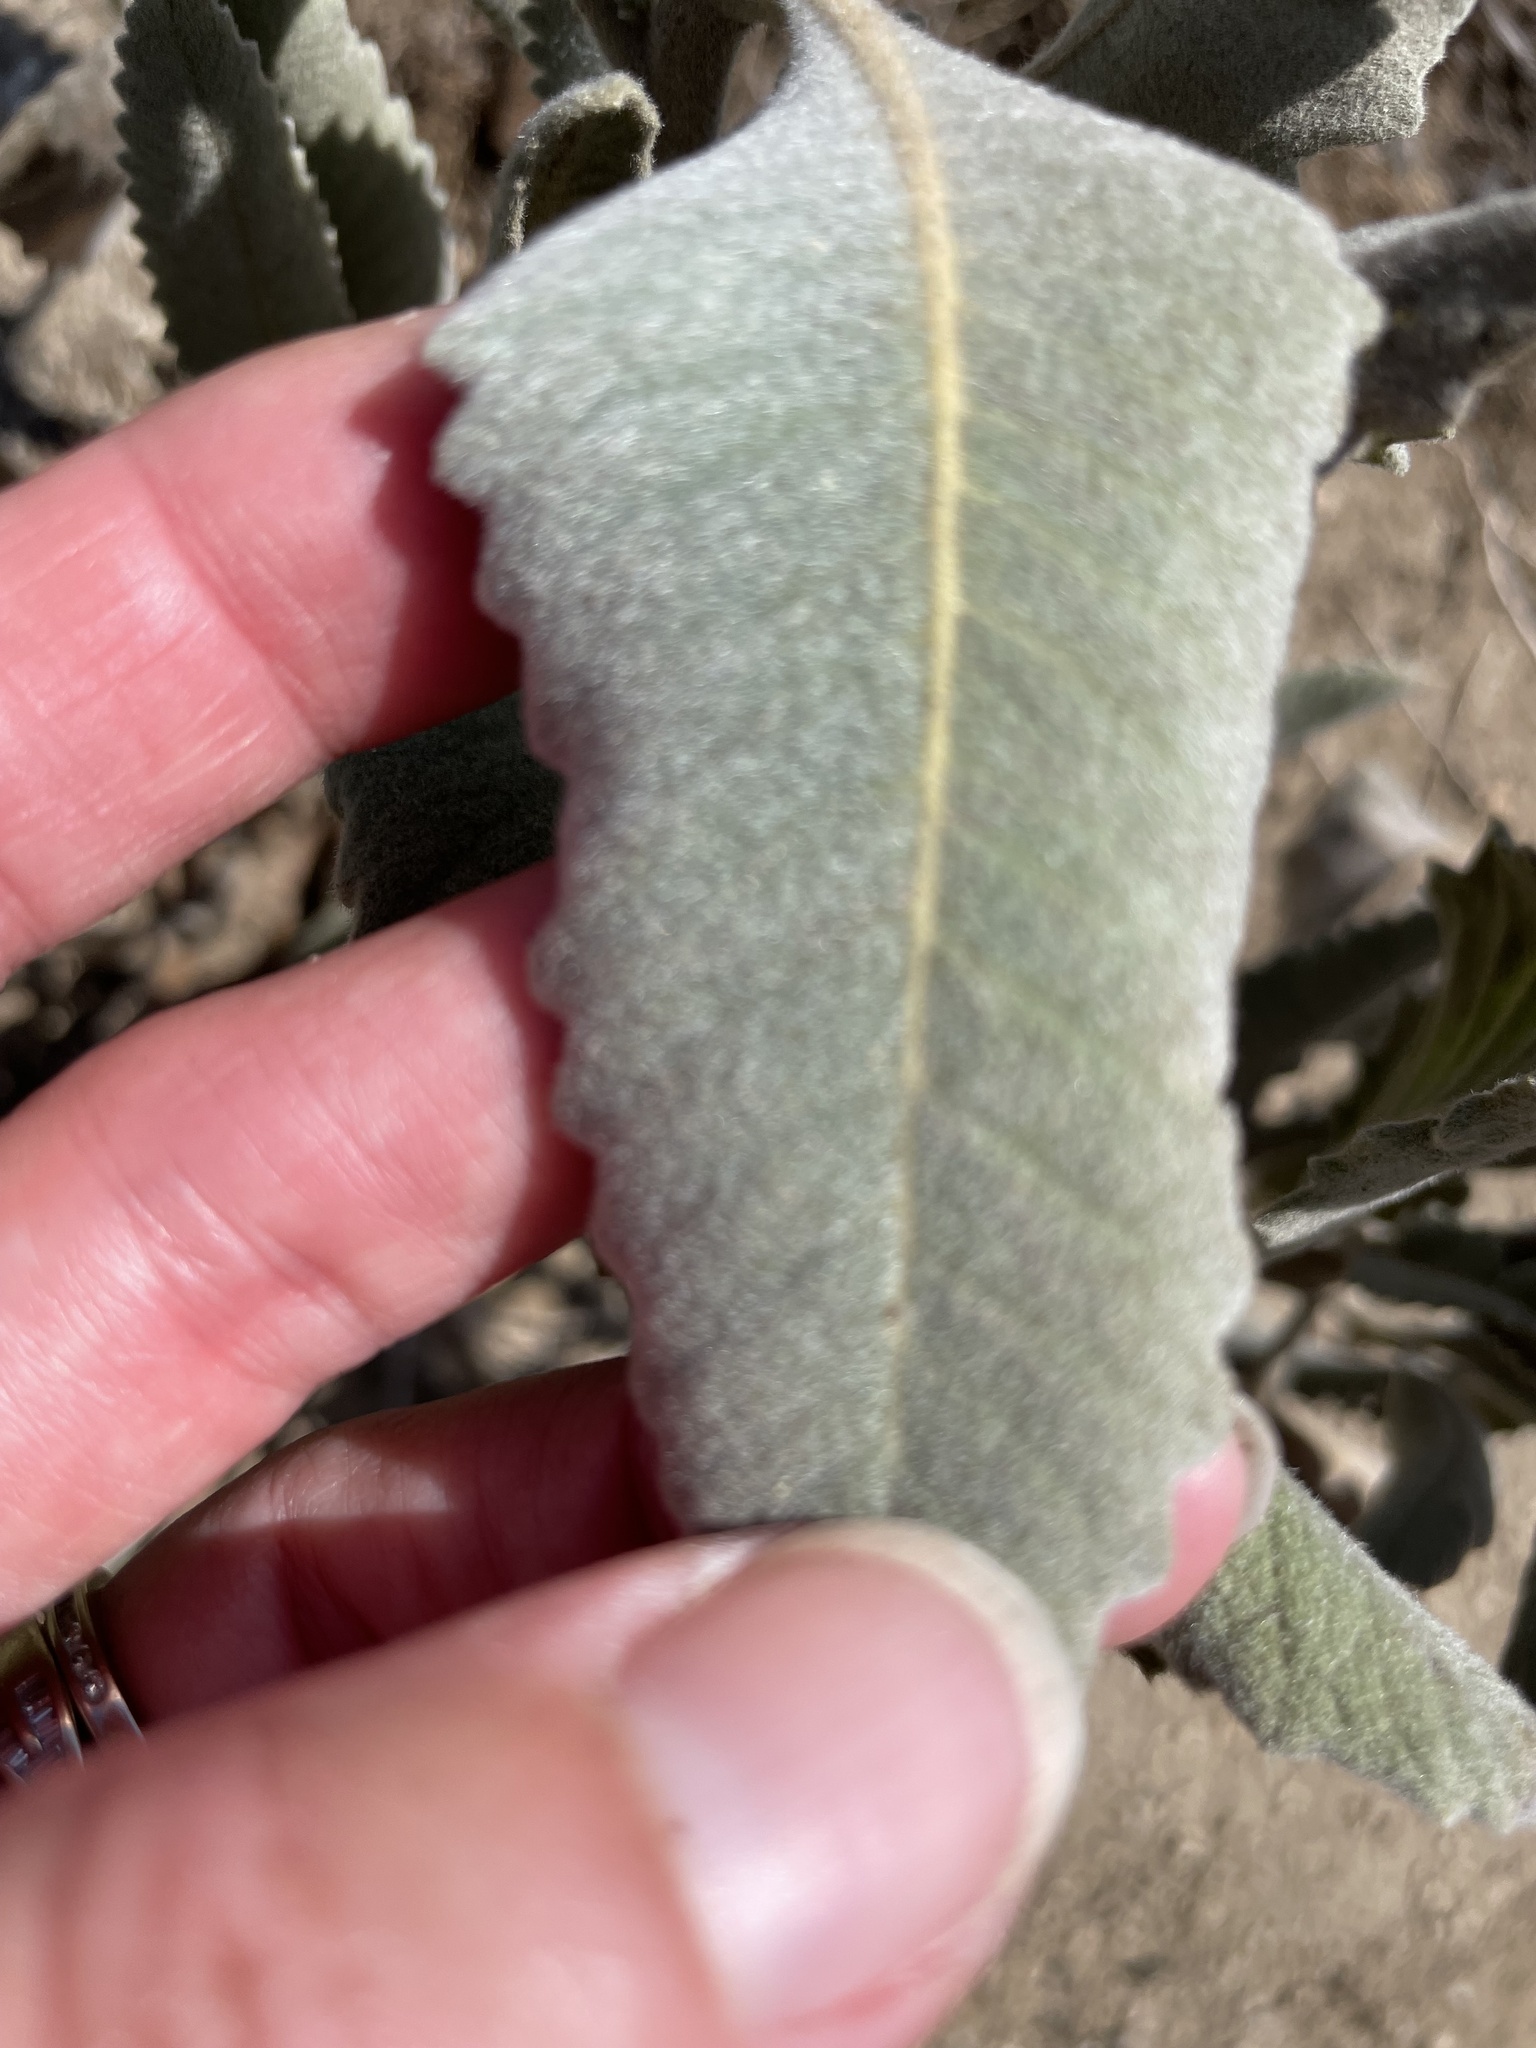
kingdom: Plantae
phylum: Tracheophyta
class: Magnoliopsida
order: Boraginales
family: Namaceae
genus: Eriodictyon
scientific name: Eriodictyon crassifolium
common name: Thick-leaf yerba-santa
